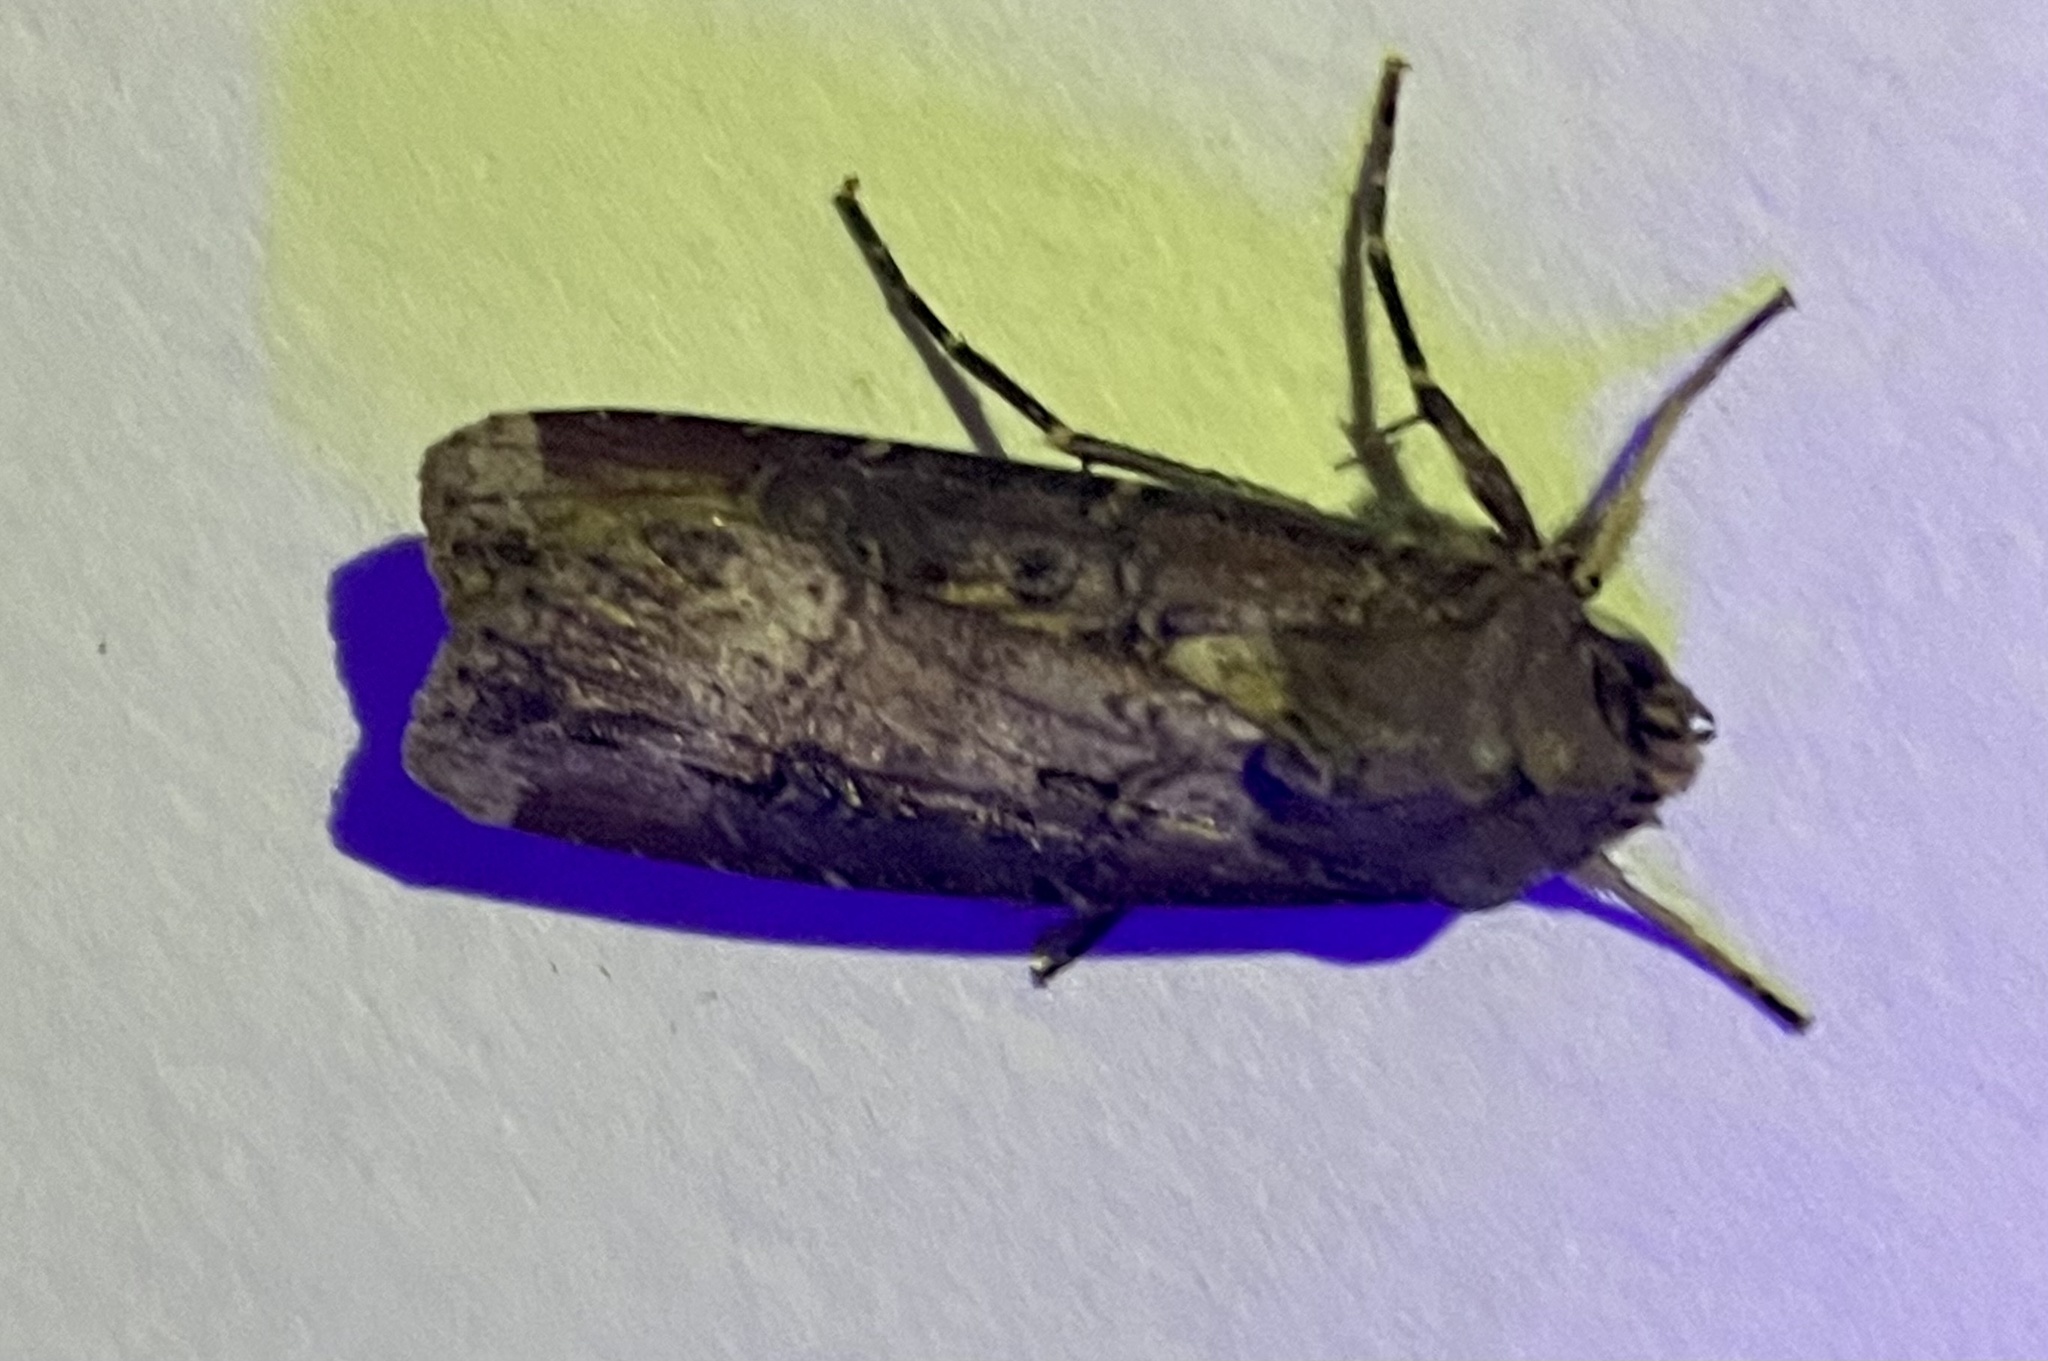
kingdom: Animalia
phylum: Arthropoda
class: Insecta
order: Lepidoptera
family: Noctuidae
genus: Agrotis
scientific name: Agrotis ipsilon
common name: Dark sword-grass
